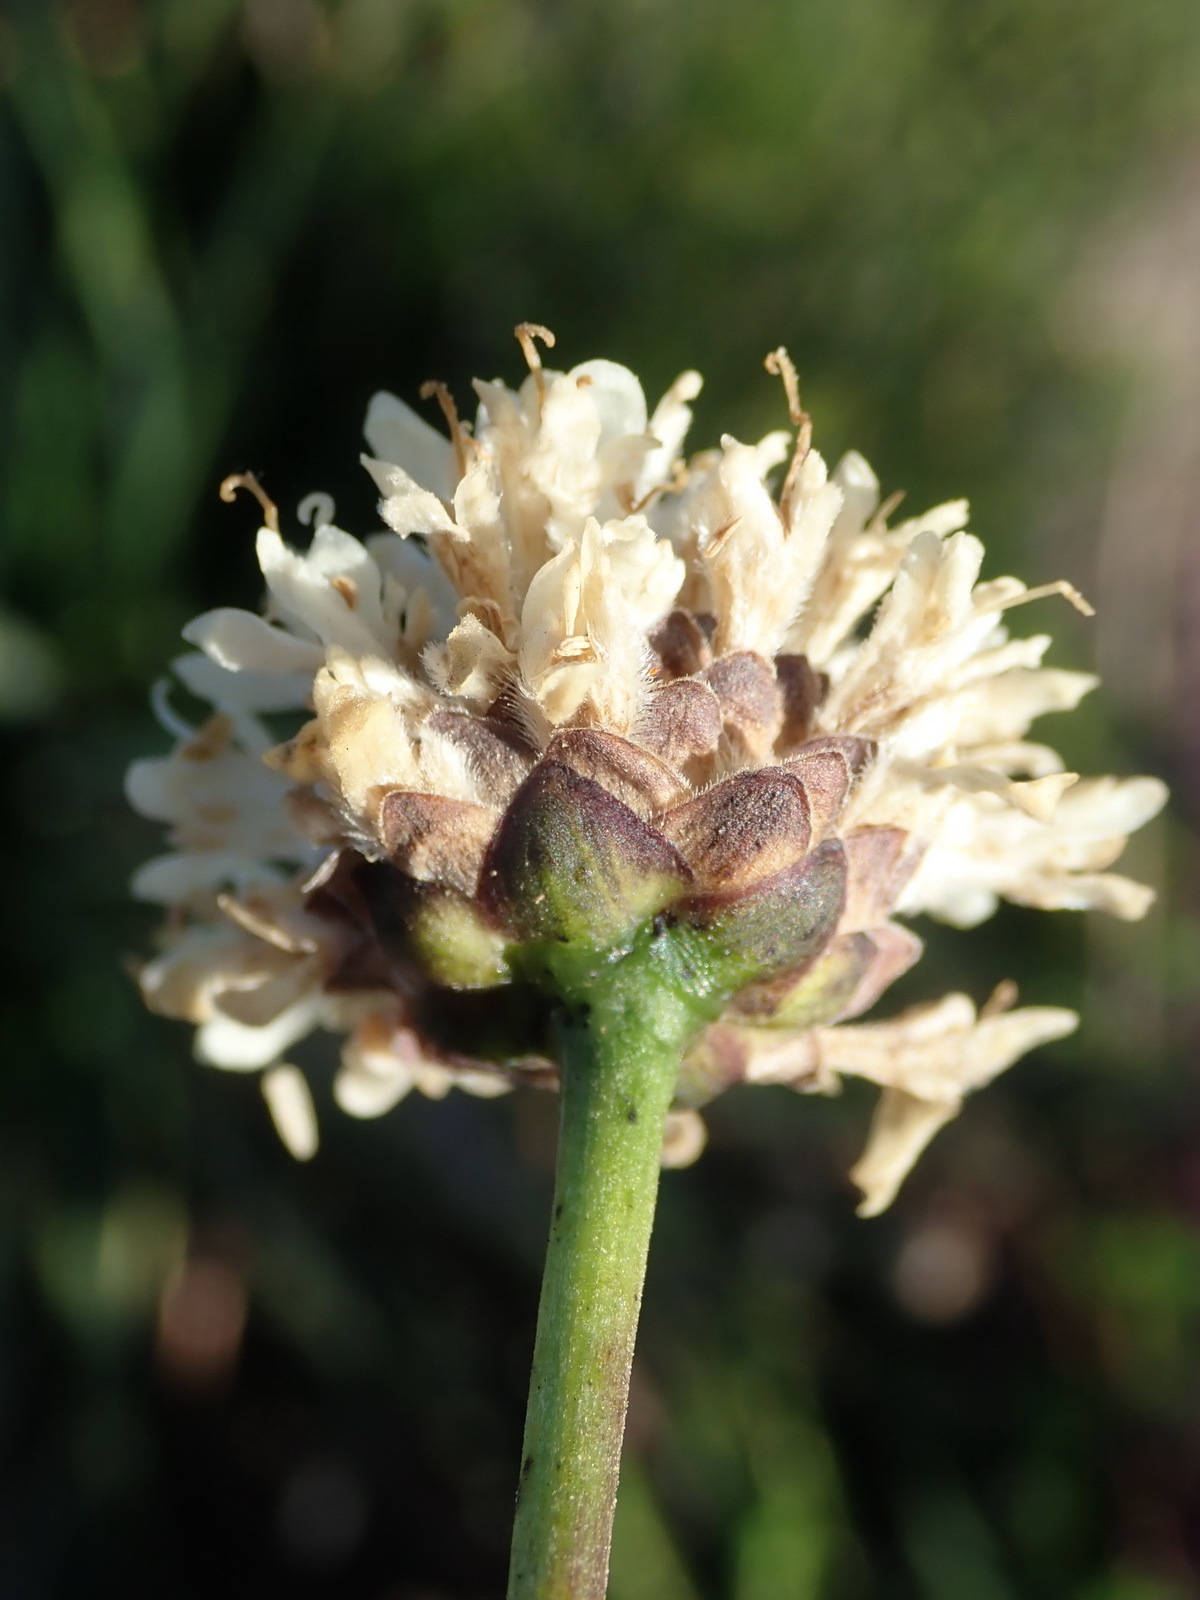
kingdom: Plantae
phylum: Tracheophyta
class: Magnoliopsida
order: Dipsacales
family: Caprifoliaceae
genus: Cephalaria
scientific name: Cephalaria humilis
